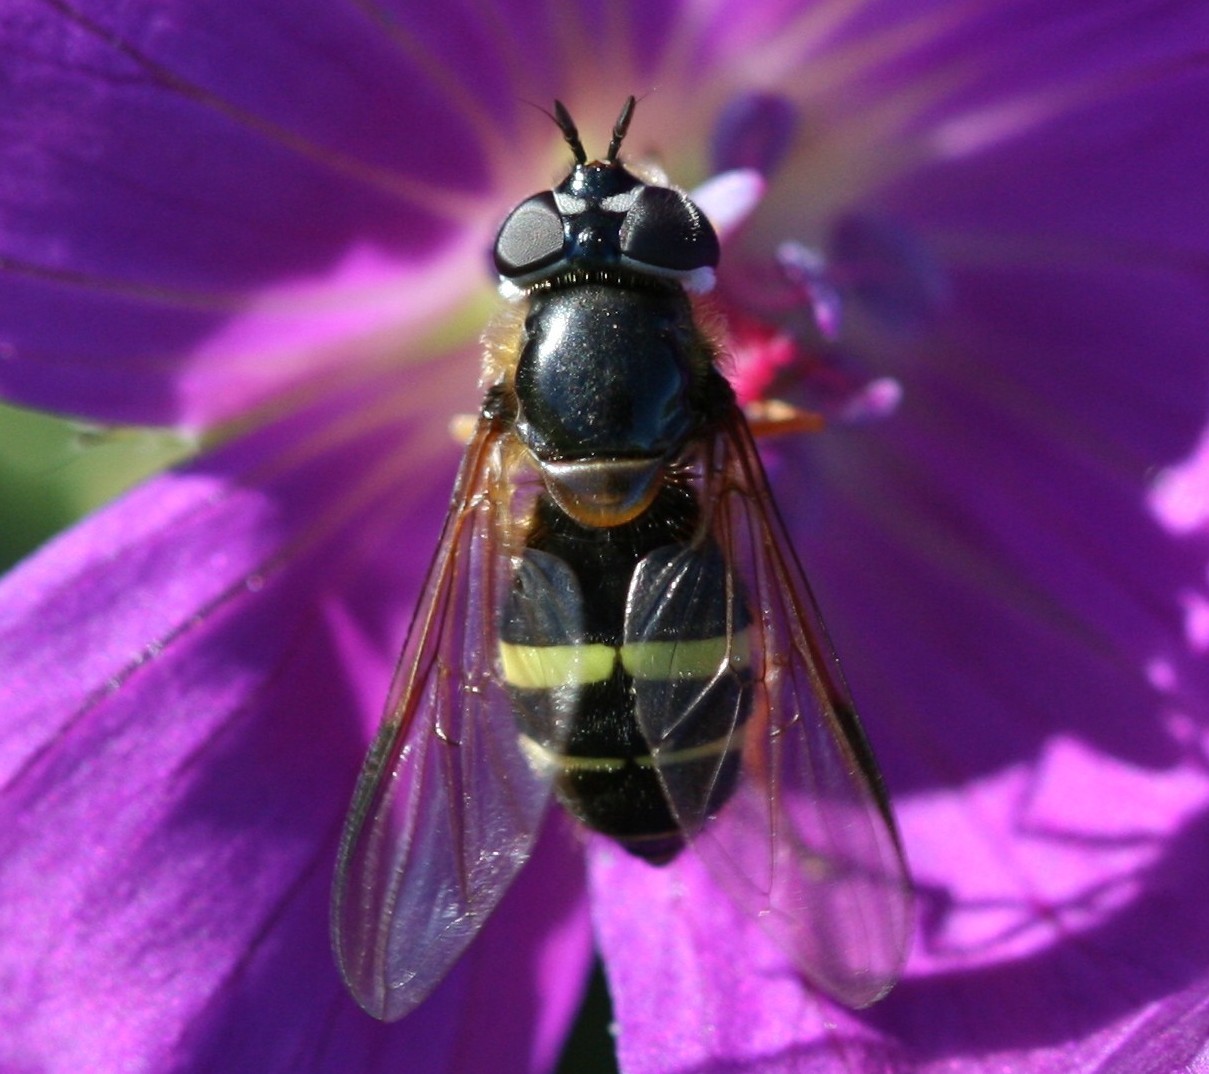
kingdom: Animalia
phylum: Arthropoda
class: Insecta
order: Diptera
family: Syrphidae
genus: Dasysyrphus
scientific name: Dasysyrphus tricinctus
